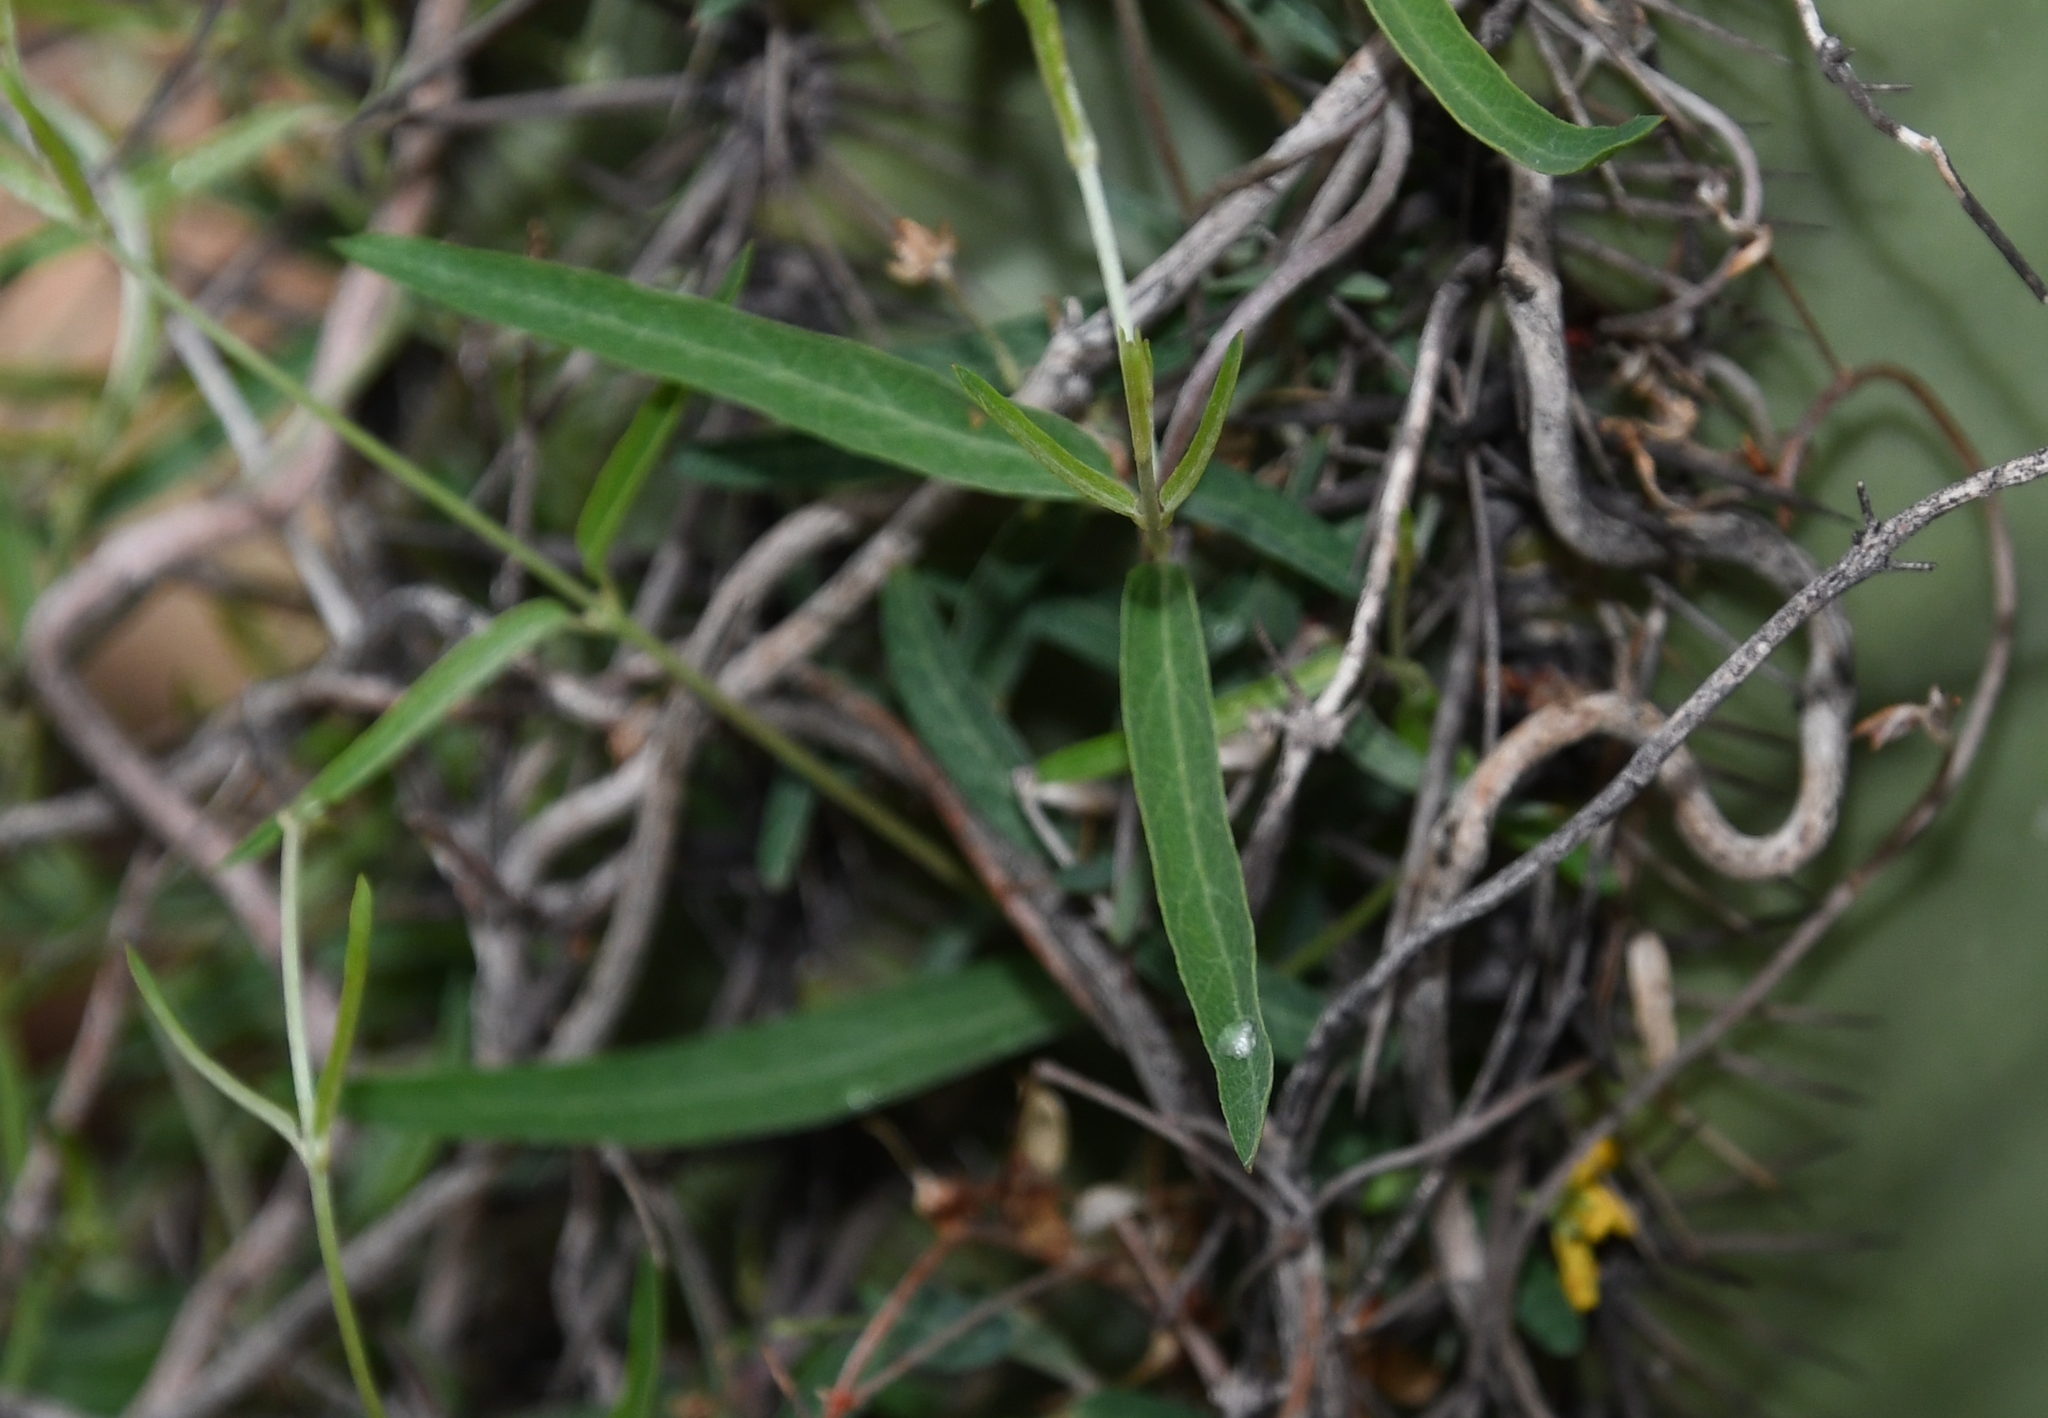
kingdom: Plantae
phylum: Tracheophyta
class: Magnoliopsida
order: Malpighiales
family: Malpighiaceae
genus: Cottsia
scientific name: Cottsia gracilis
